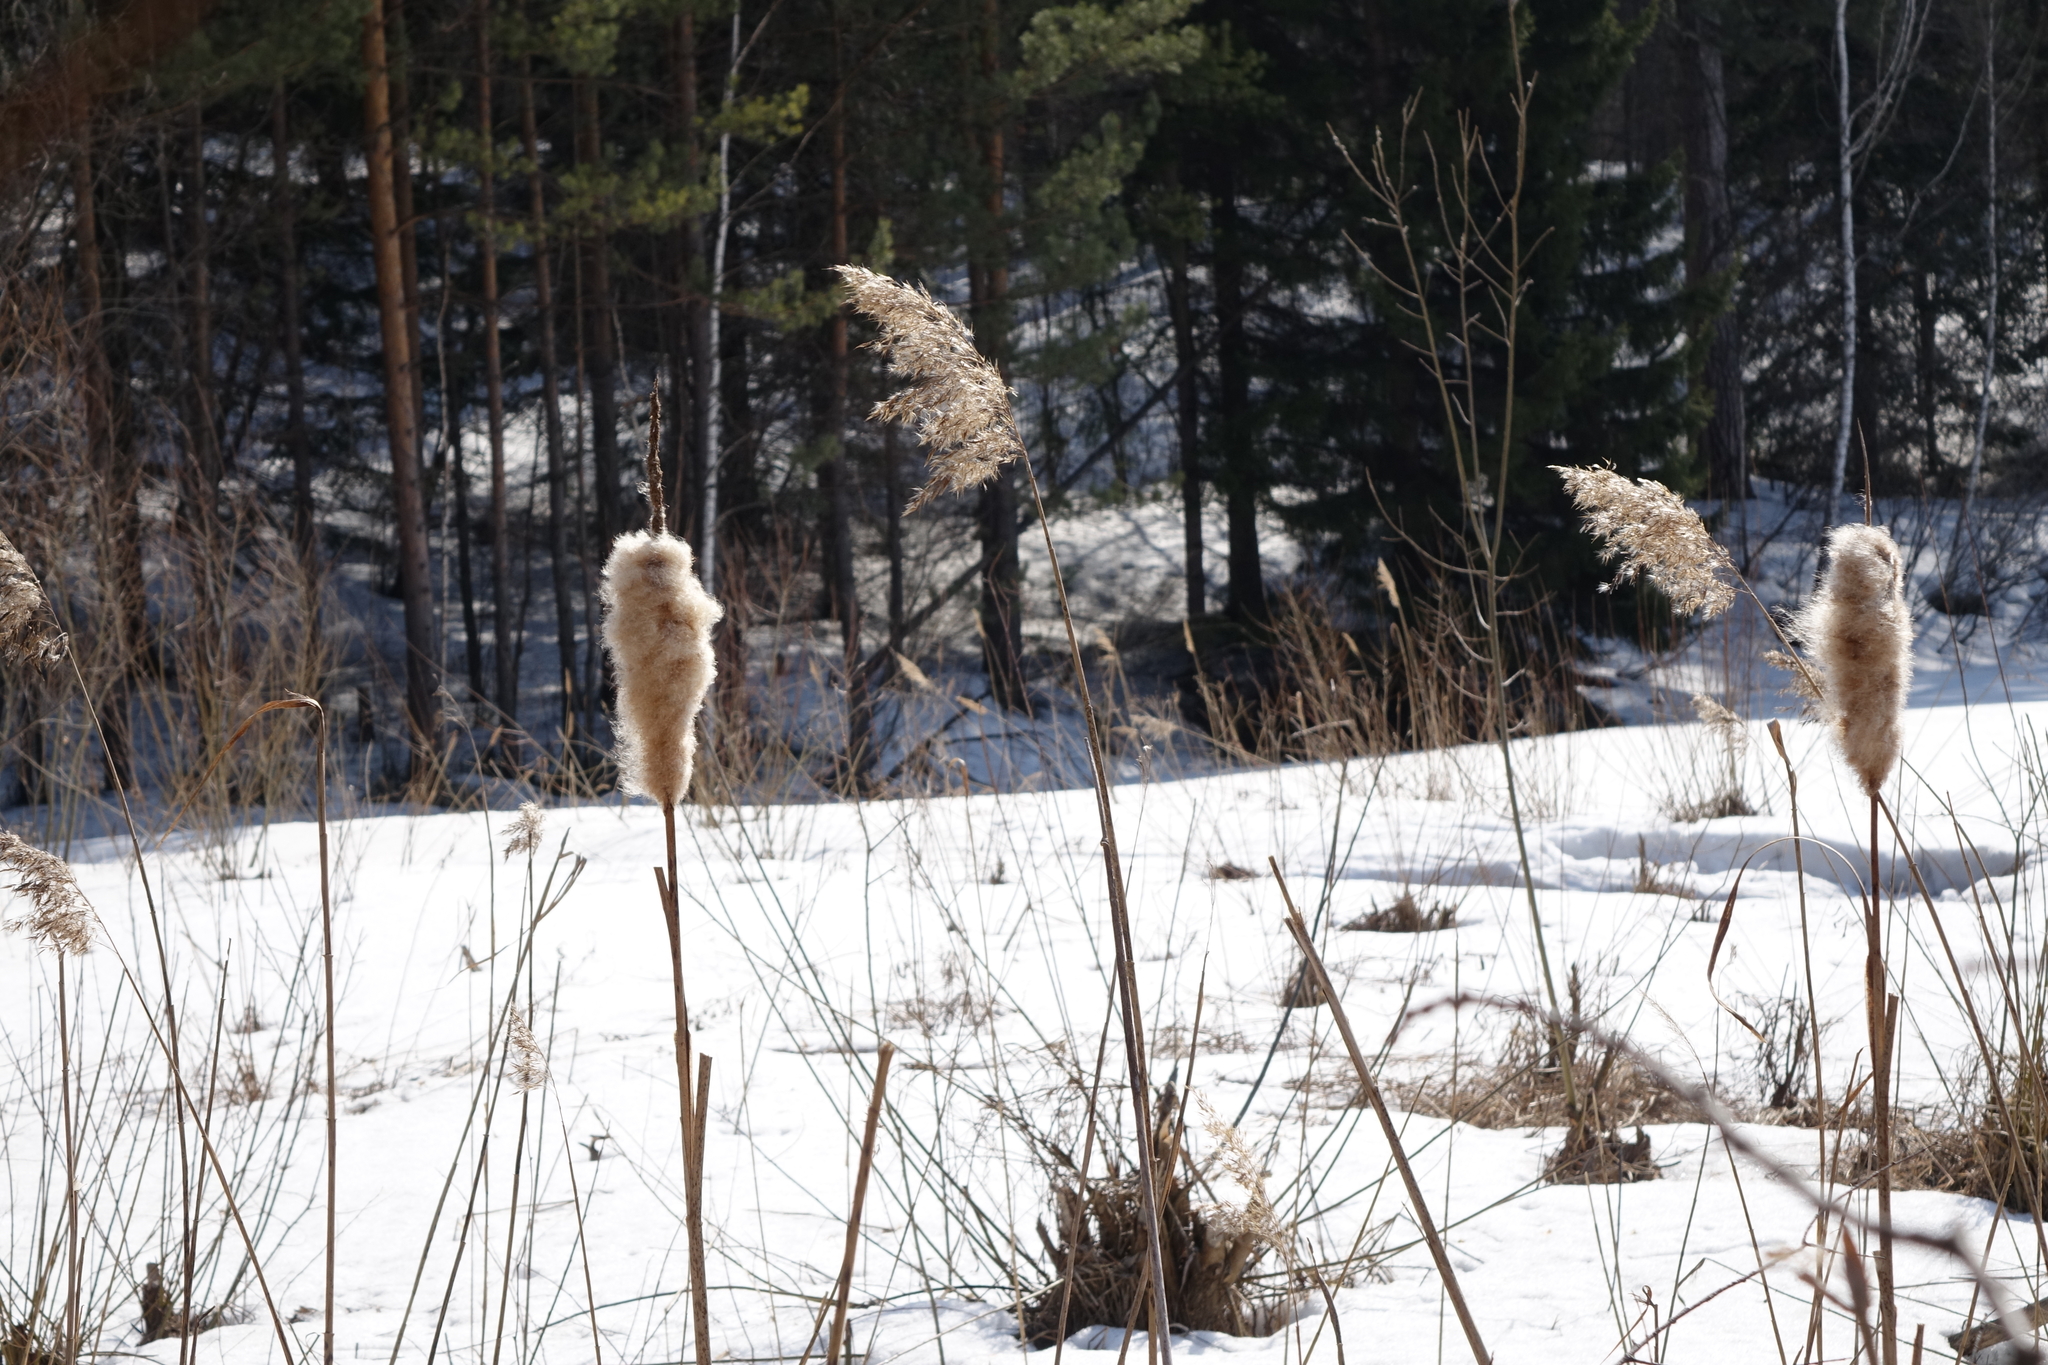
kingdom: Plantae
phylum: Tracheophyta
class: Liliopsida
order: Poales
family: Poaceae
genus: Phragmites
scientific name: Phragmites australis
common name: Common reed
